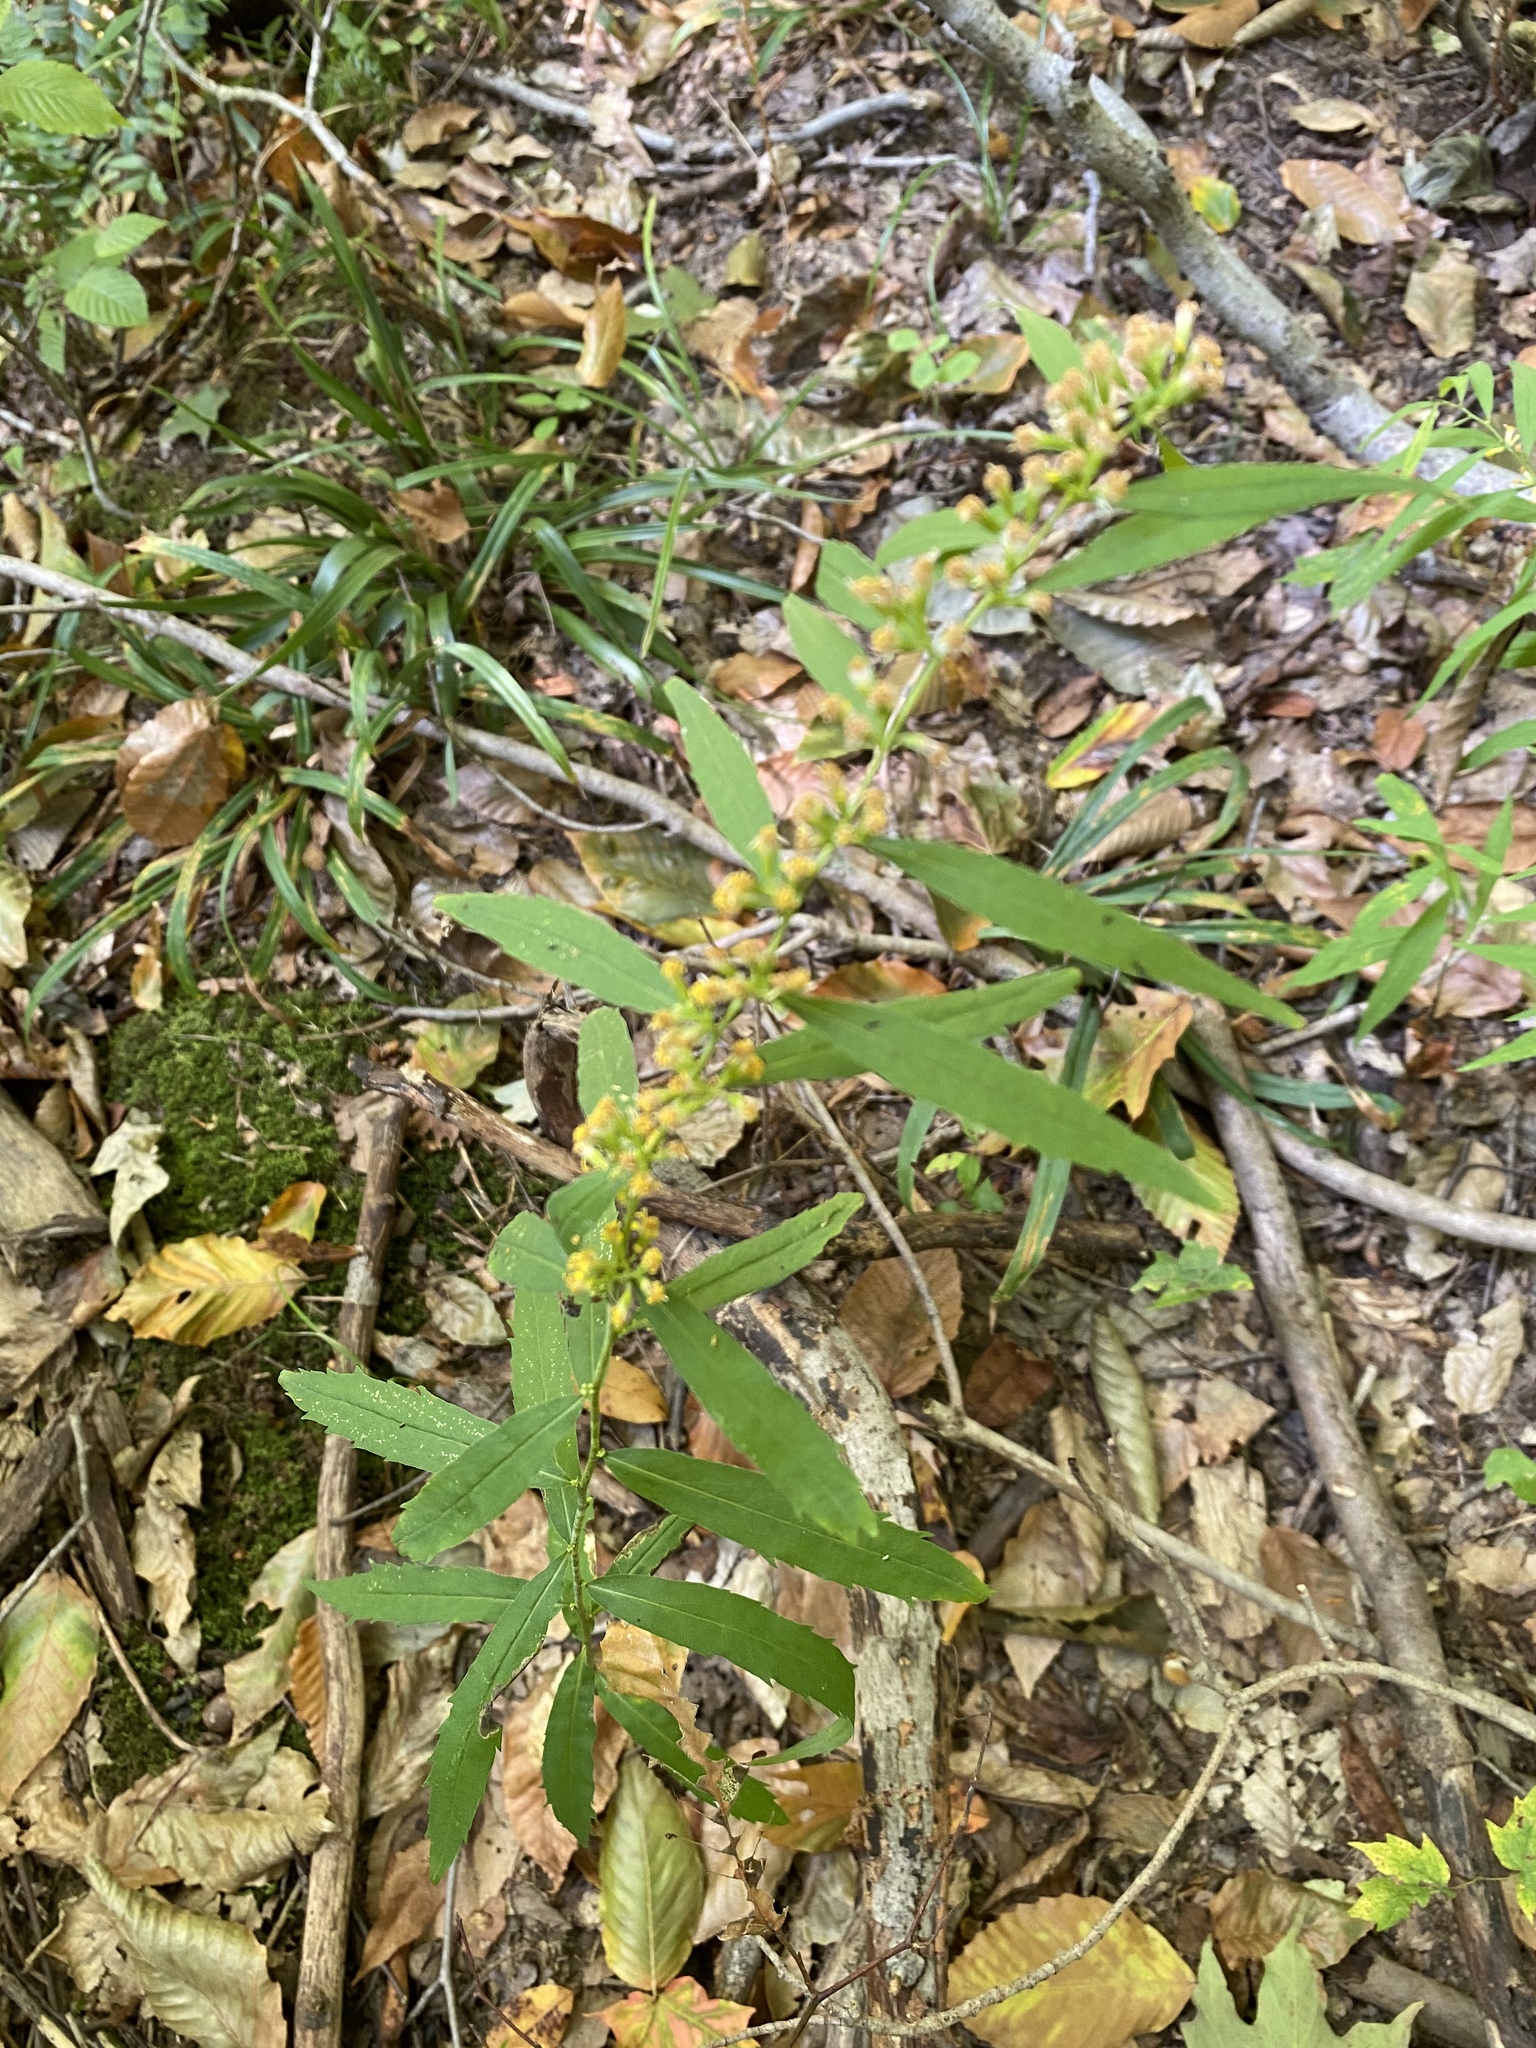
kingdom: Plantae
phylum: Tracheophyta
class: Magnoliopsida
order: Asterales
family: Asteraceae
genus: Solidago
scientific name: Solidago caesia
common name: Woodland goldenrod
